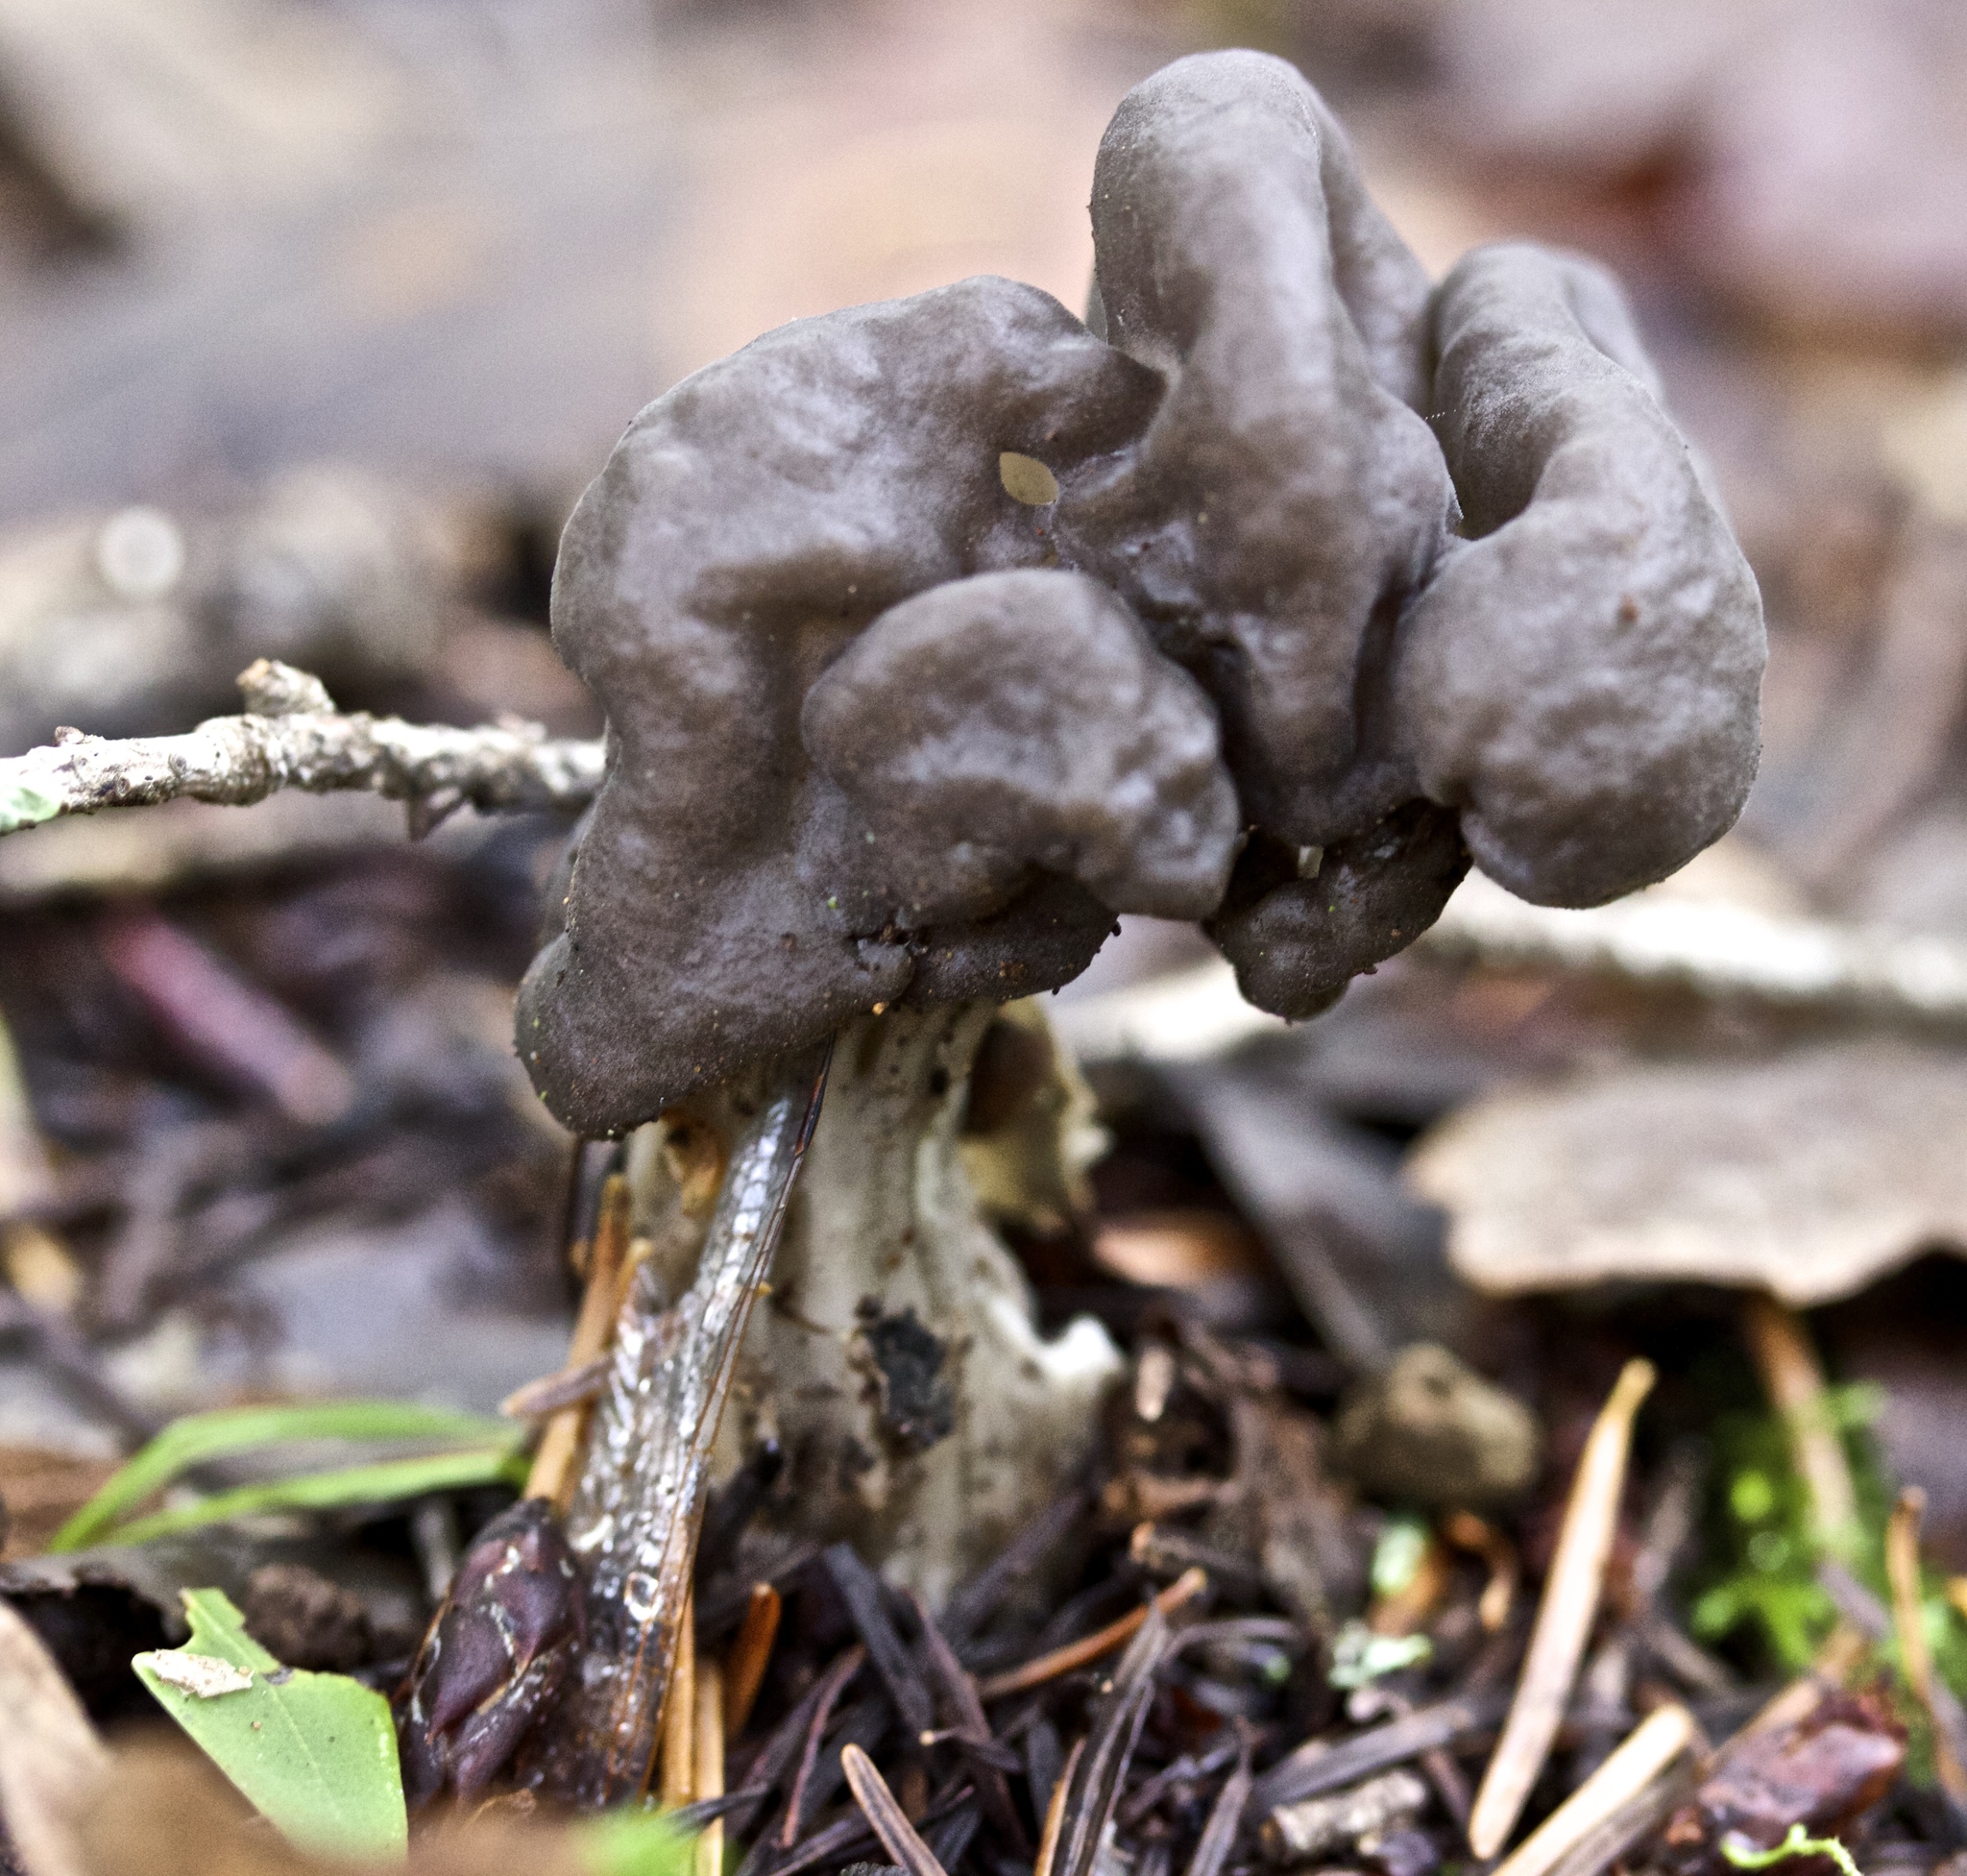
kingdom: Fungi
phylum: Ascomycota
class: Pezizomycetes
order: Pezizales
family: Helvellaceae
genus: Helvella
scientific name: Helvella vespertina
